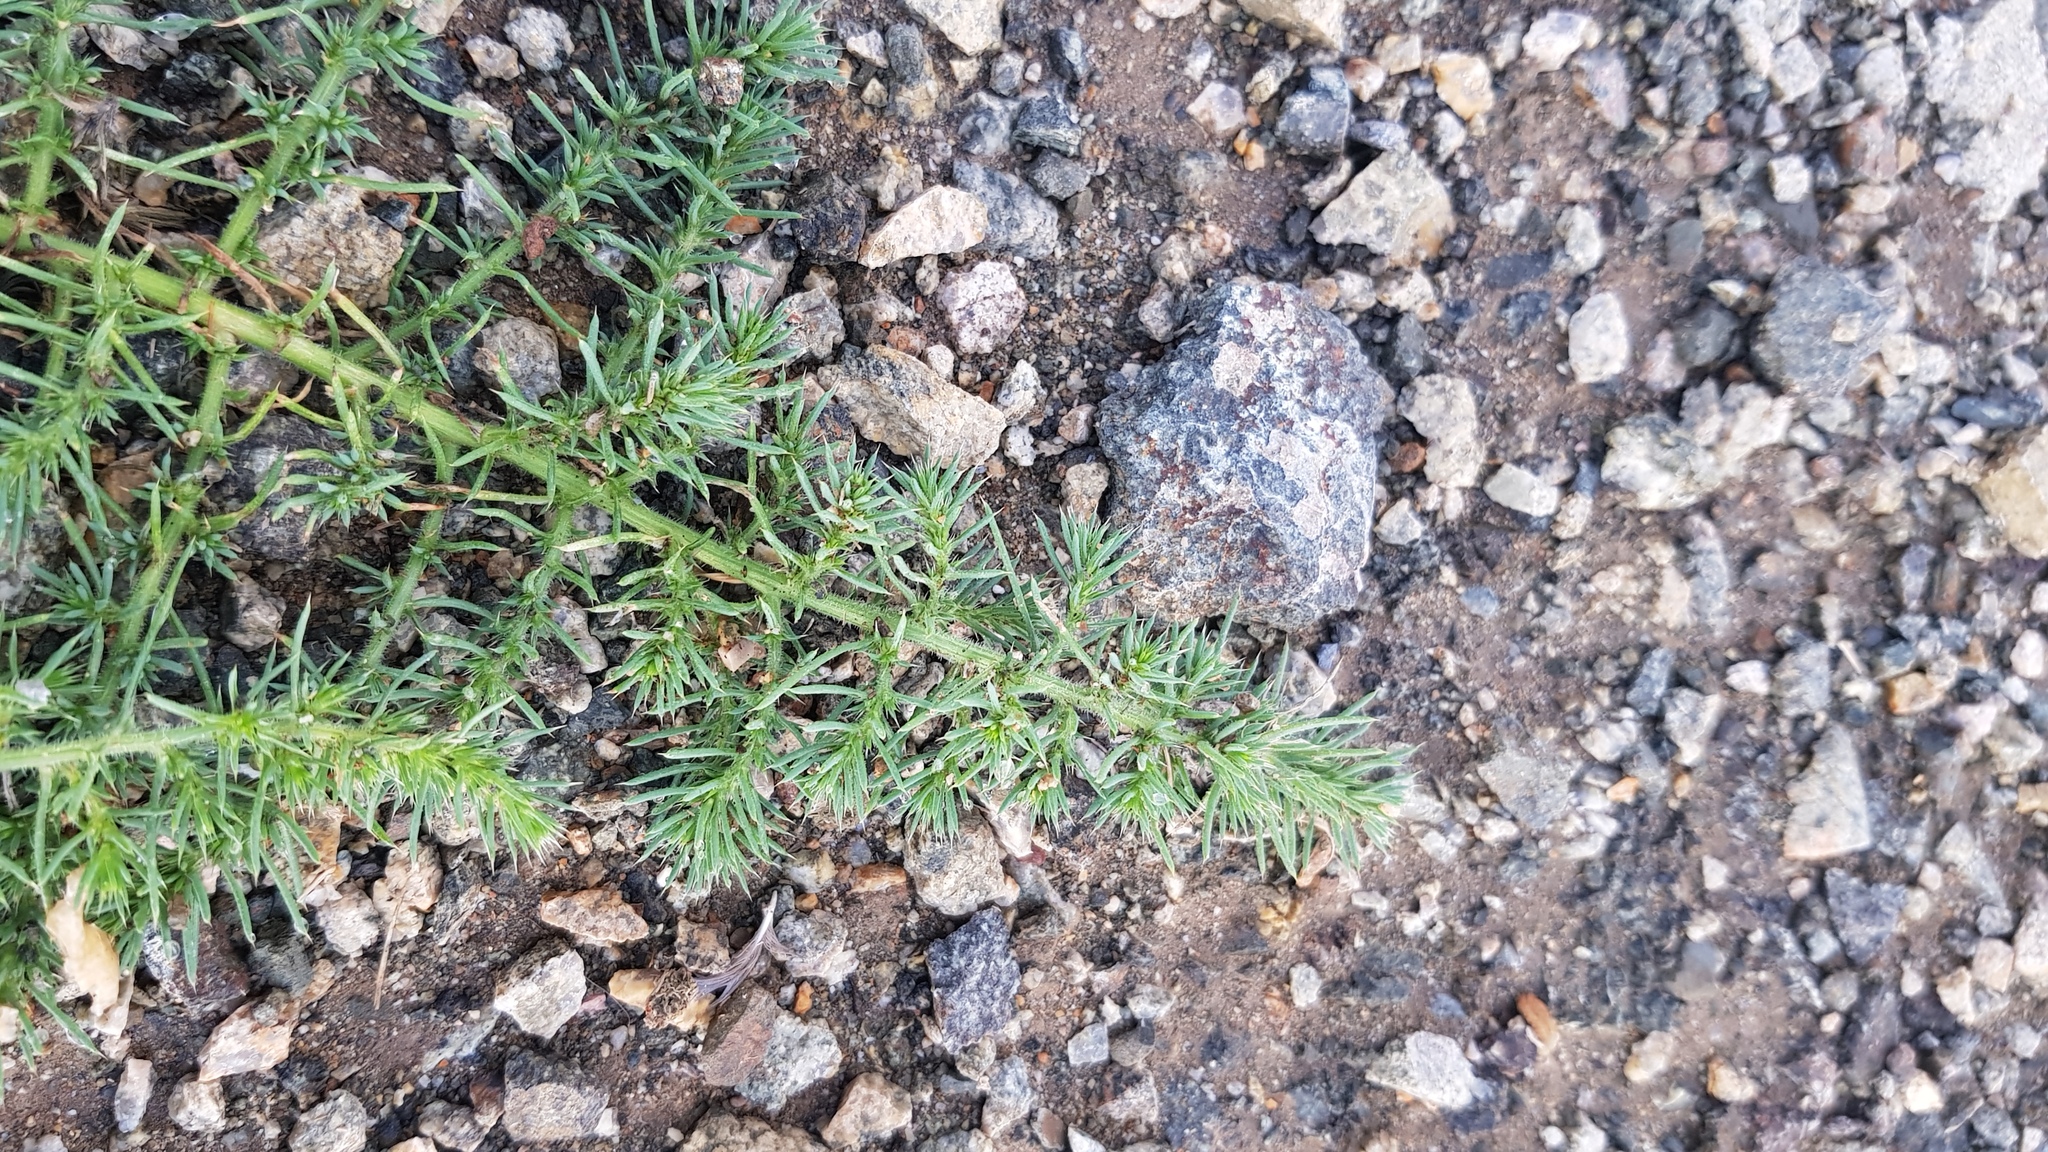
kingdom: Plantae
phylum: Tracheophyta
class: Magnoliopsida
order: Caryophyllales
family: Amaranthaceae
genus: Salsola
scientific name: Salsola tragus
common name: Prickly russian thistle
